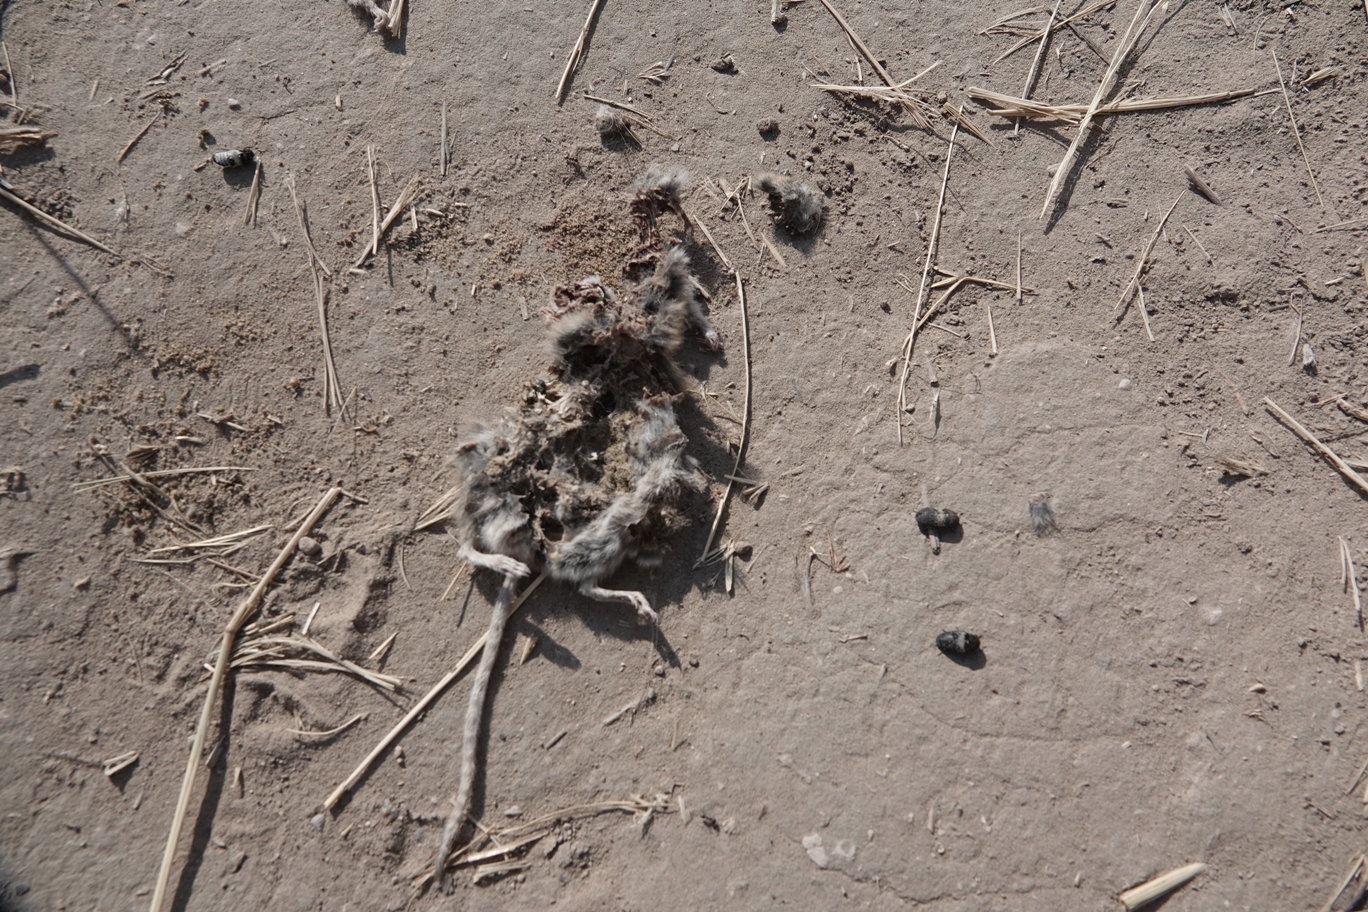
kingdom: Animalia
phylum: Arthropoda
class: Insecta
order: Coleoptera
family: Dermestidae
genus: Dermestes
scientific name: Dermestes fasciatus
